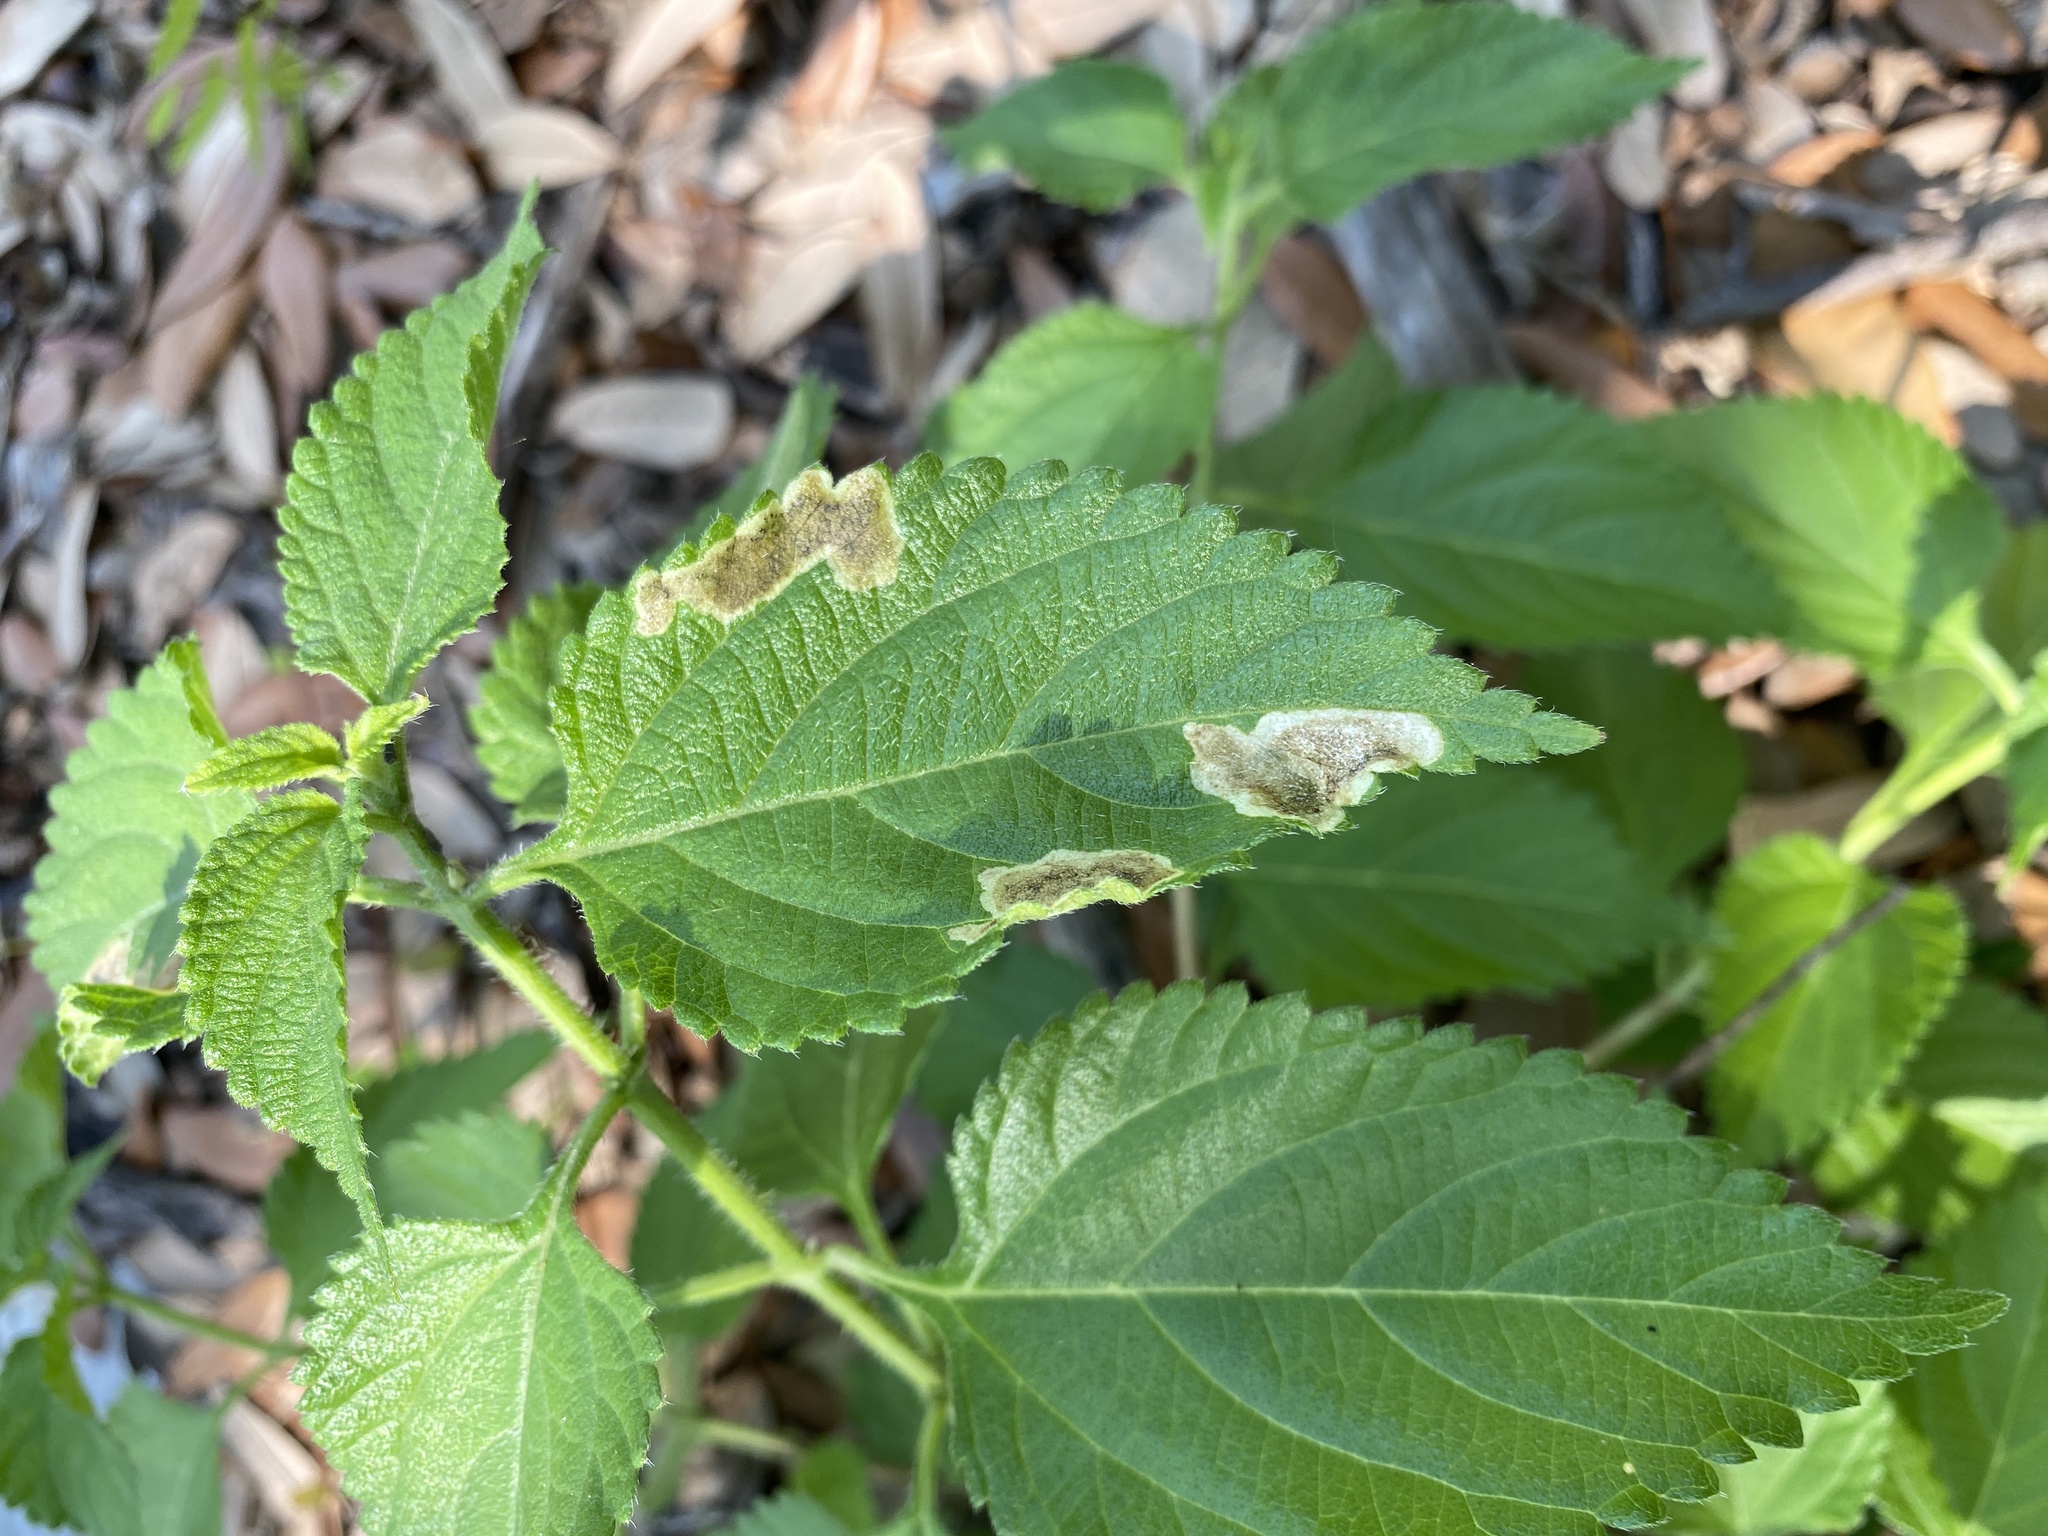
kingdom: Animalia
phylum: Arthropoda
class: Insecta
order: Diptera
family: Agromyzidae
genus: Calycomyza
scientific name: Calycomyza lantanae
